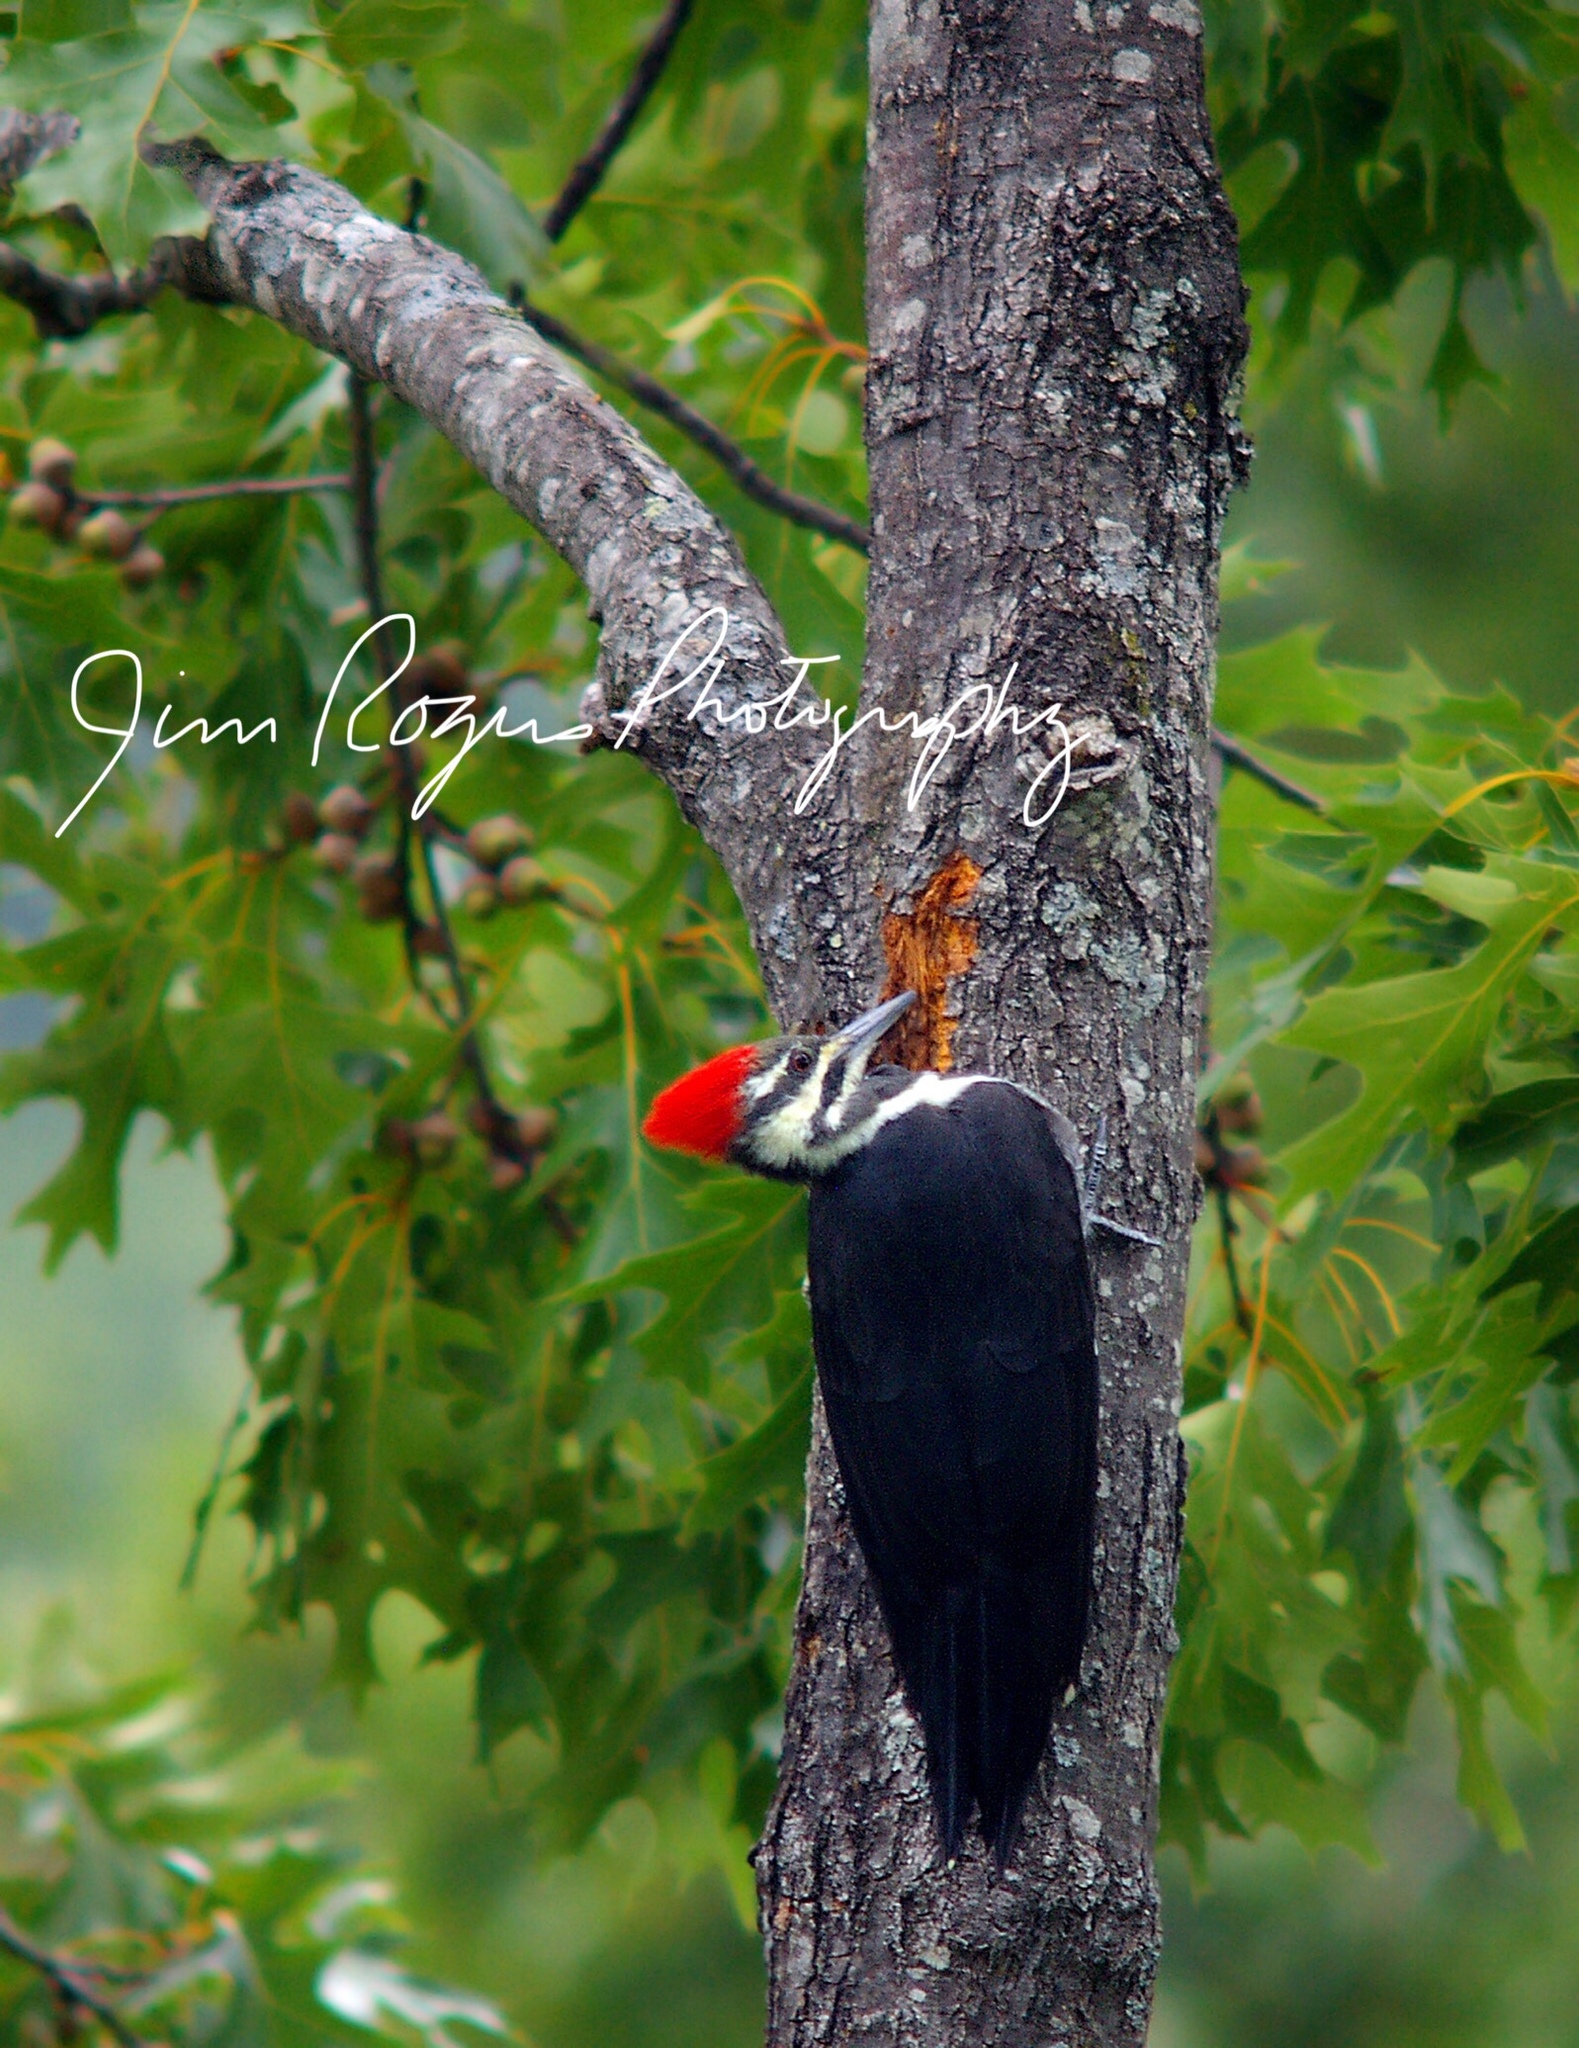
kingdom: Animalia
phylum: Chordata
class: Aves
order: Piciformes
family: Picidae
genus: Dryocopus
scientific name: Dryocopus pileatus
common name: Pileated woodpecker
